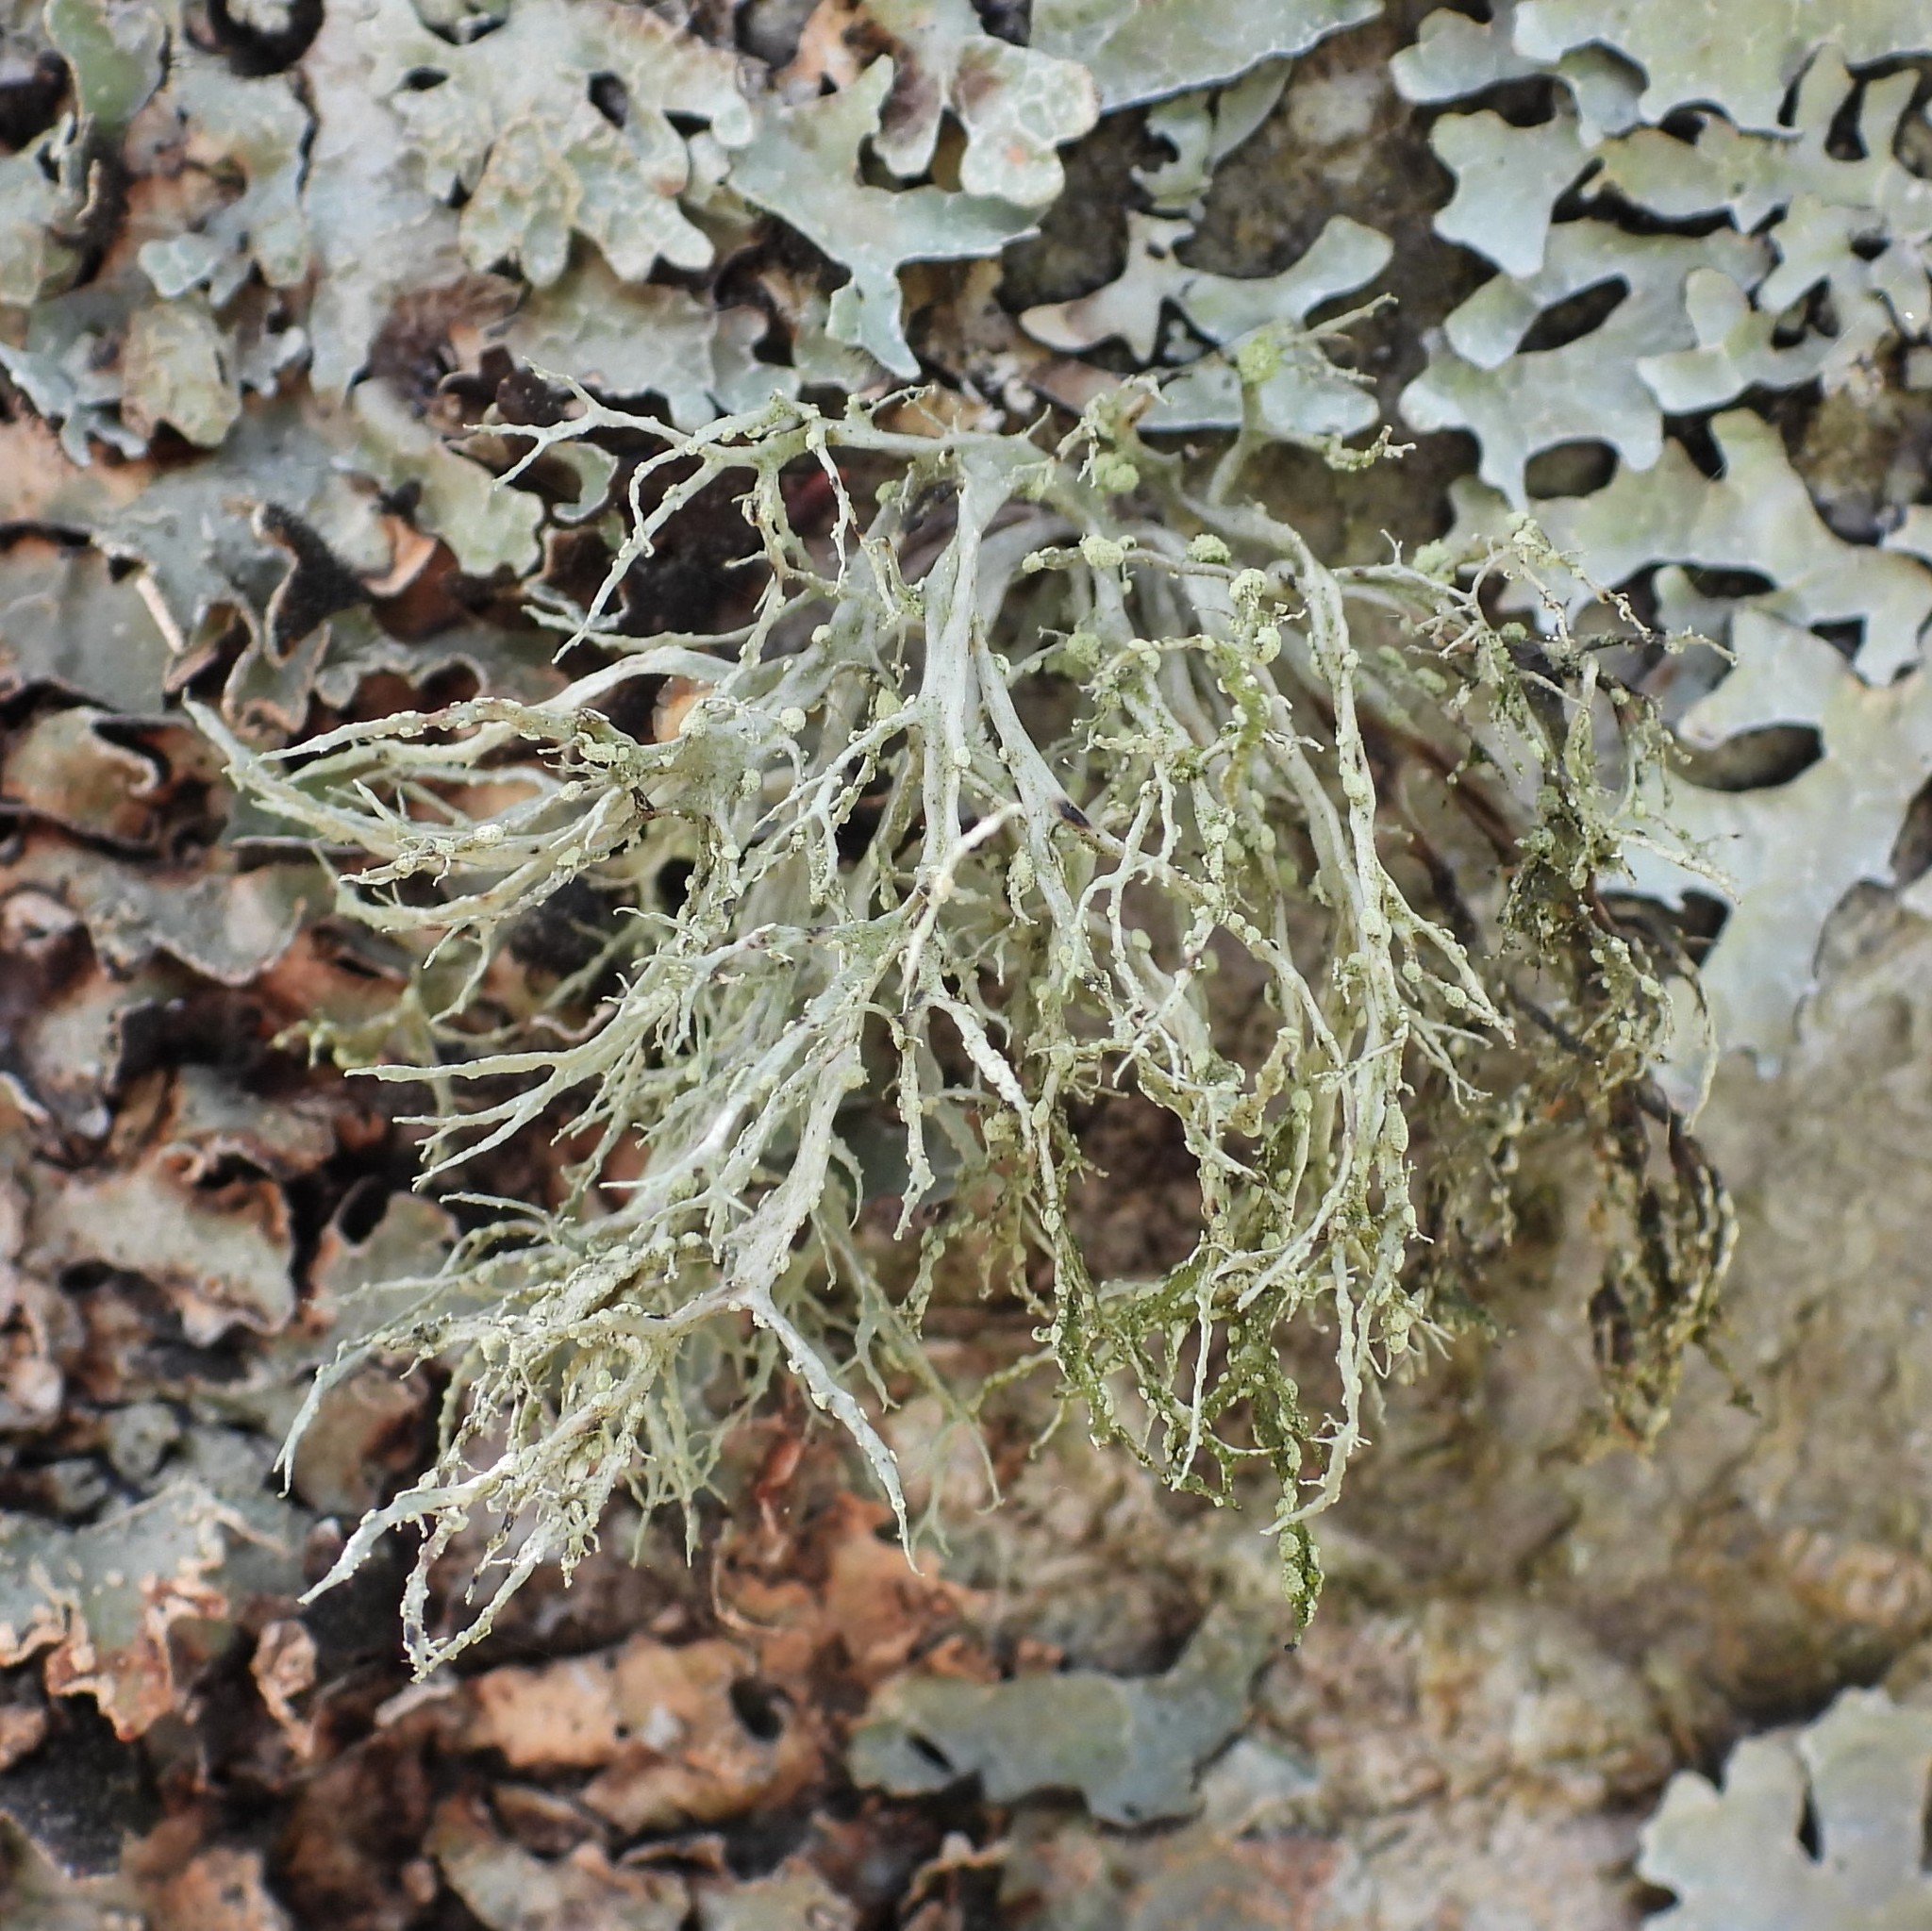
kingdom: Fungi
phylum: Ascomycota
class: Lecanoromycetes
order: Lecanorales
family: Ramalinaceae
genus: Ramalina
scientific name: Ramalina farinacea
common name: Farinose cartilage lichen
